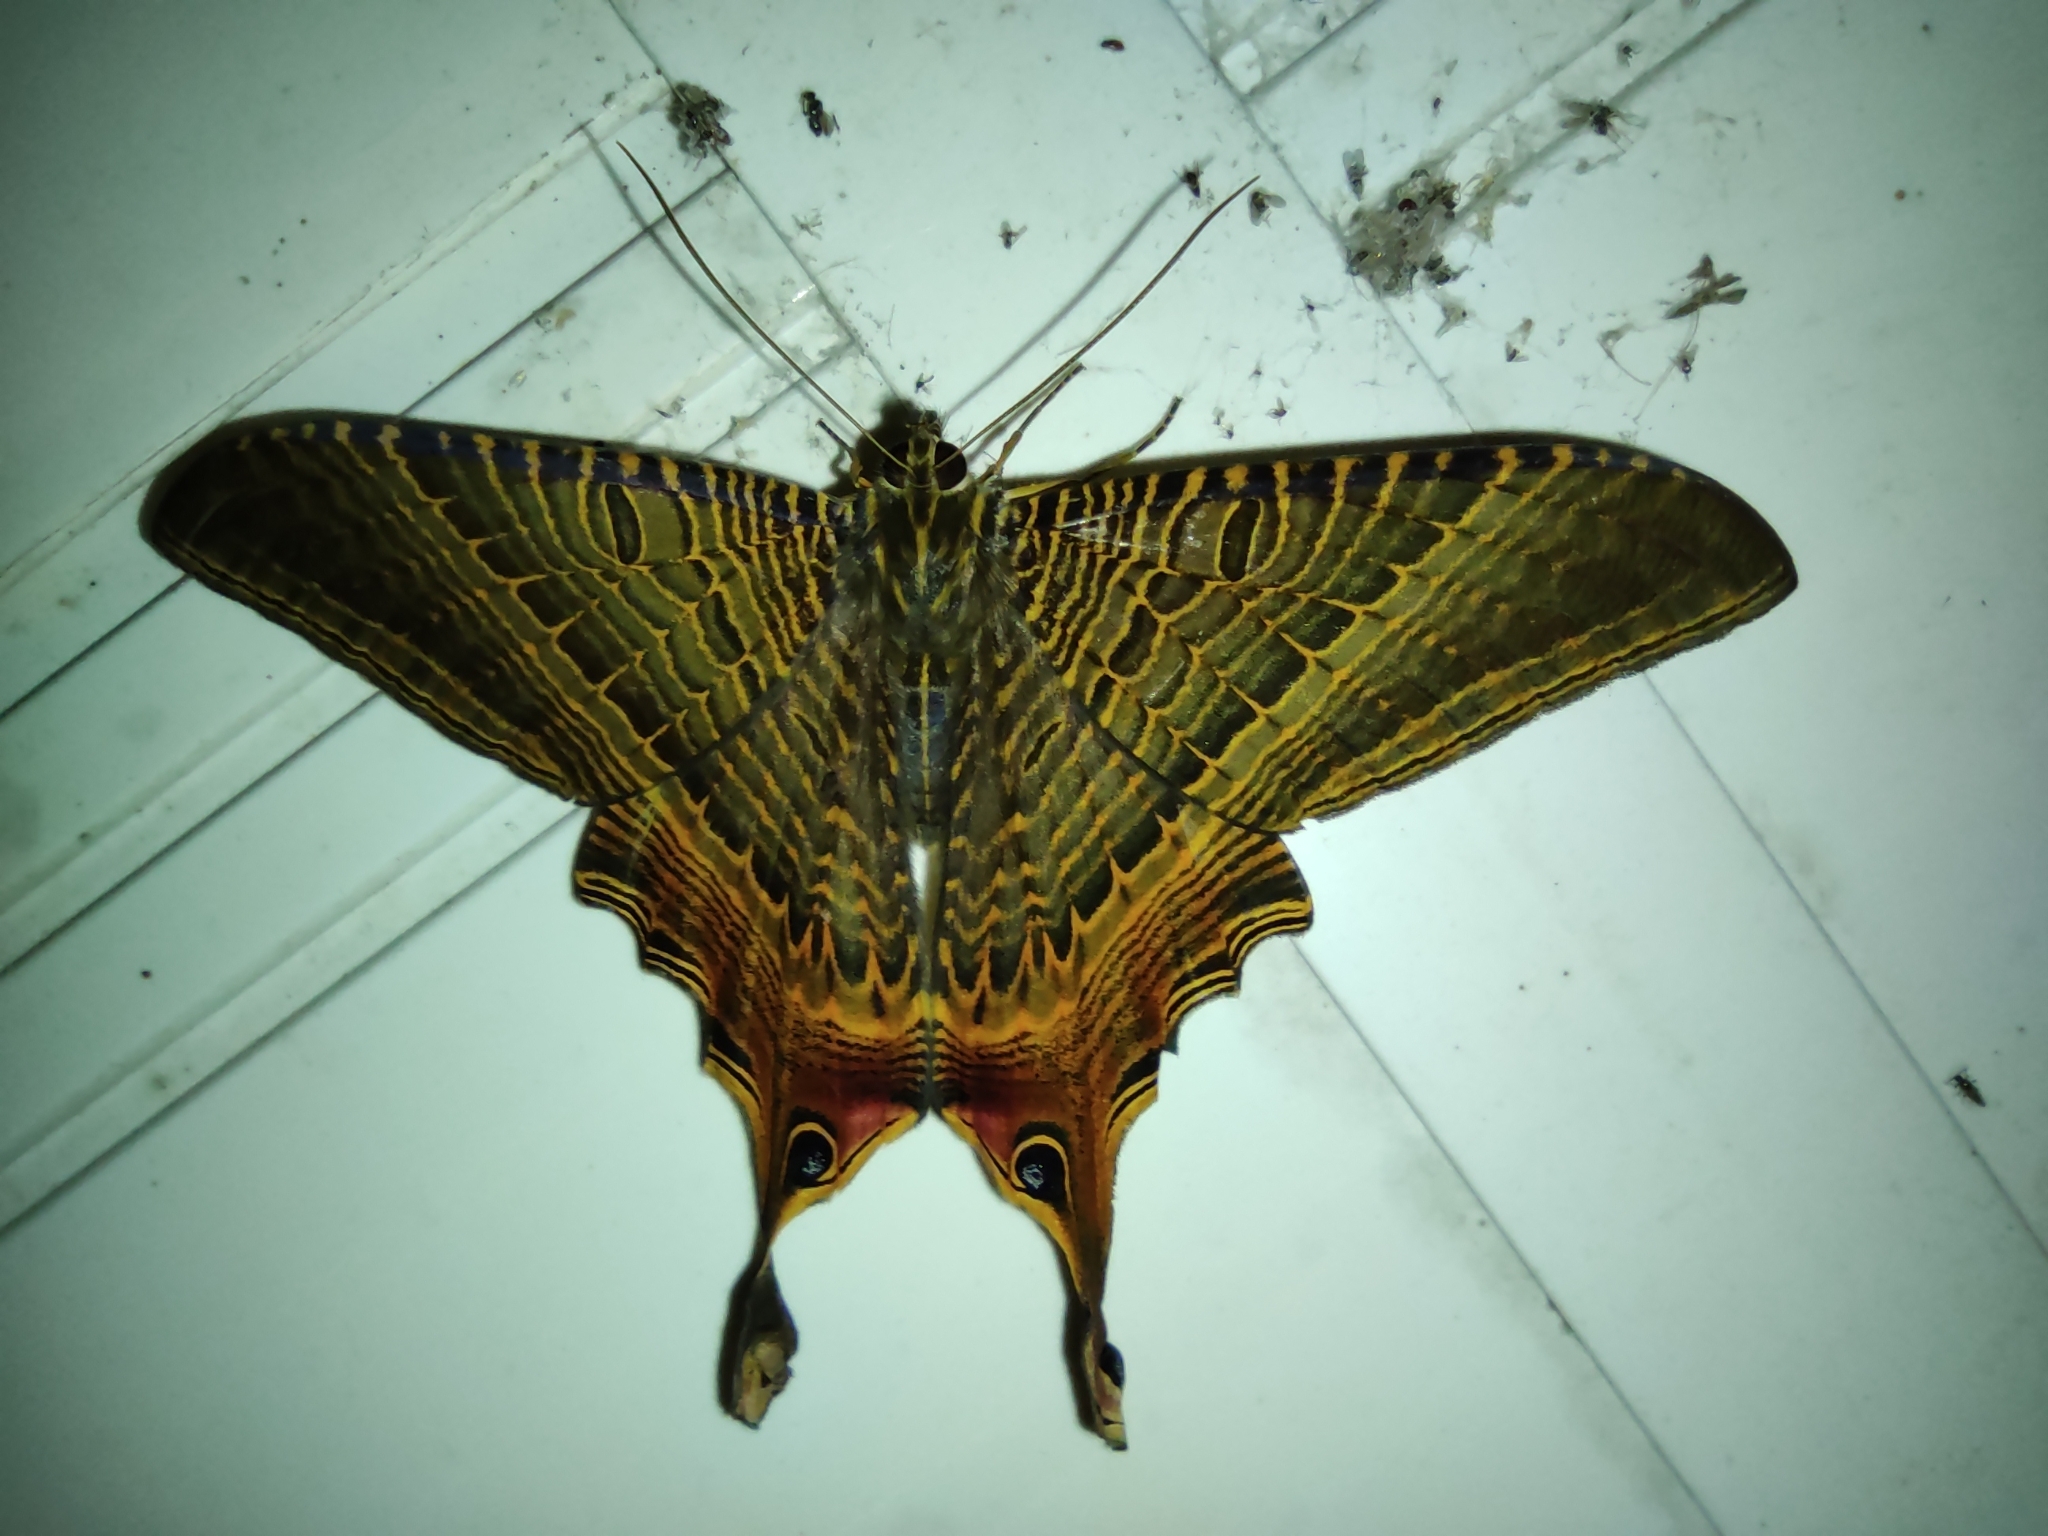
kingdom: Animalia
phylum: Arthropoda
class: Insecta
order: Lepidoptera
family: Sematuridae
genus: Nothus
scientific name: Nothus lunus
